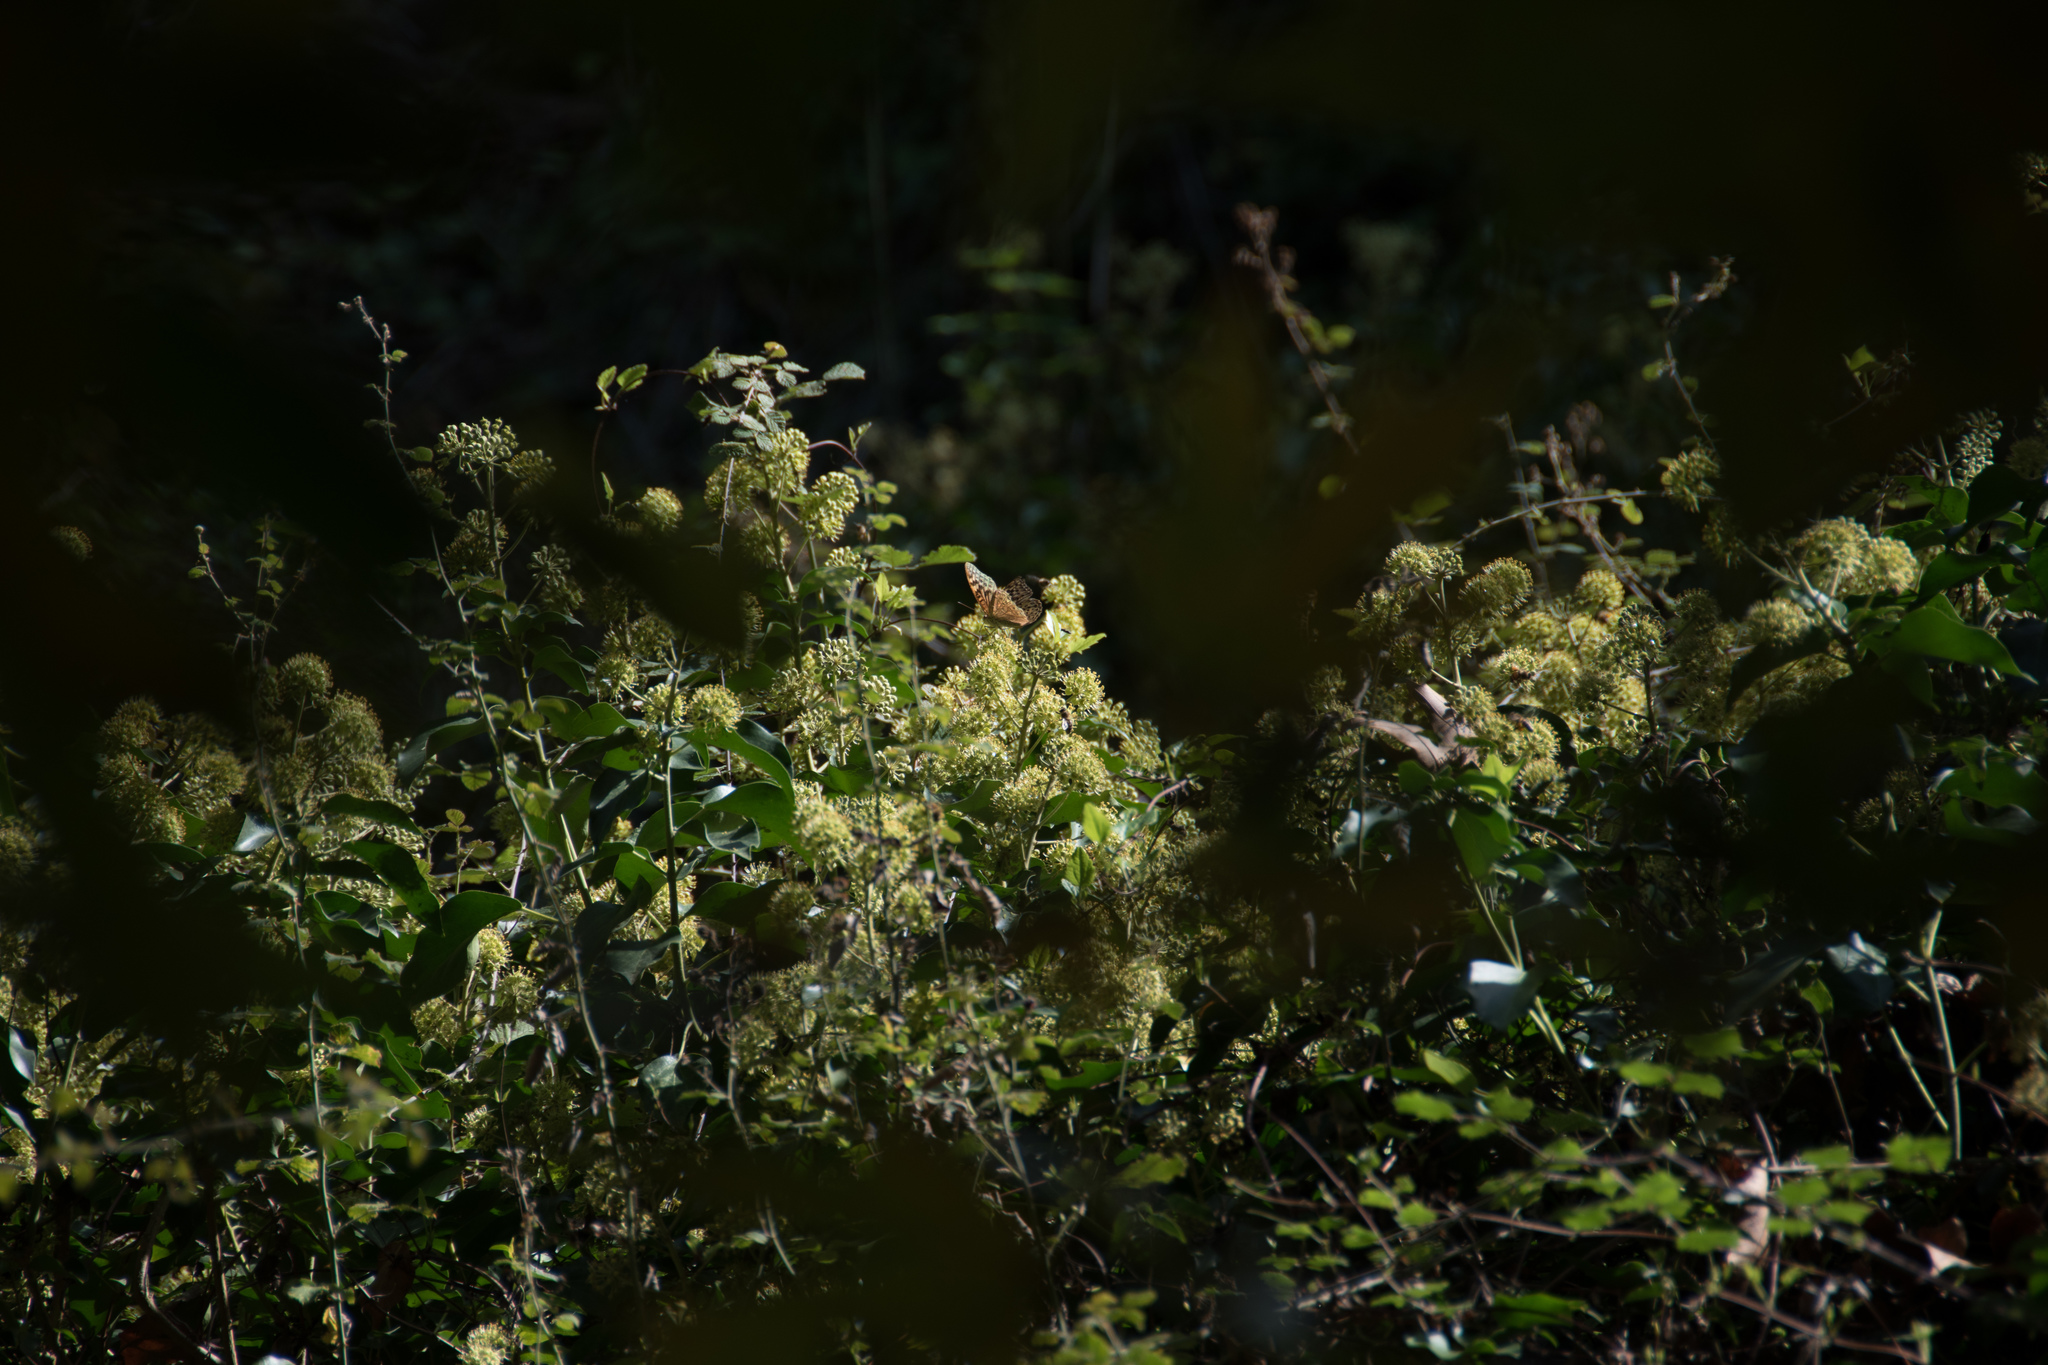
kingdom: Animalia
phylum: Arthropoda
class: Insecta
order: Lepidoptera
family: Nymphalidae
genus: Damora
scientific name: Damora pandora
